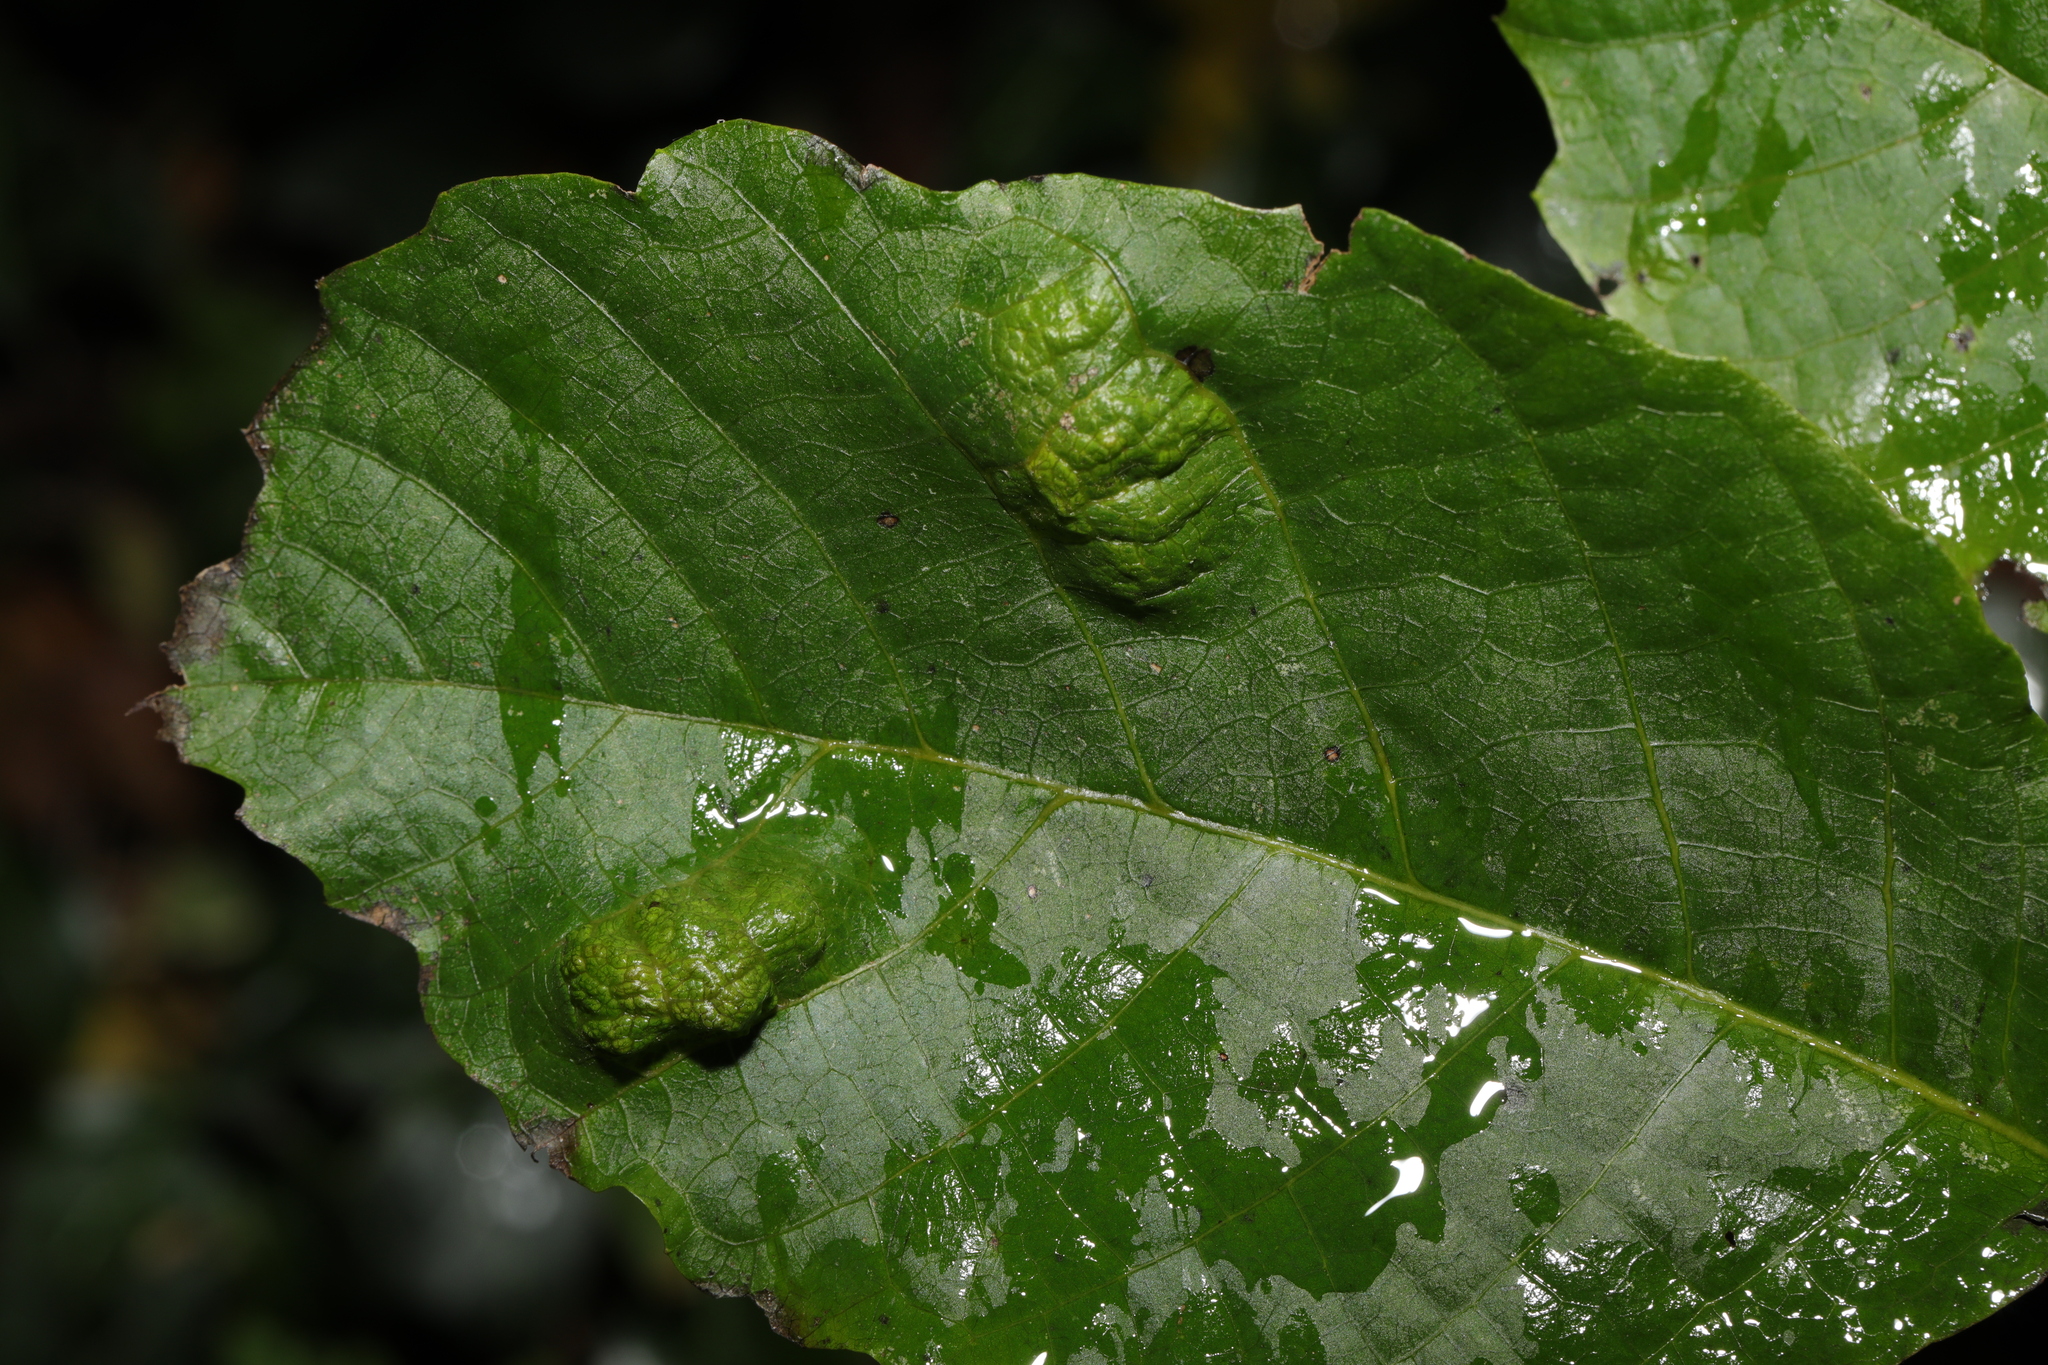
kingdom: Animalia
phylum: Arthropoda
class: Arachnida
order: Trombidiformes
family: Eriophyidae
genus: Aceria
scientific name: Aceria erinea
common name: Persian walnut erineum mite
